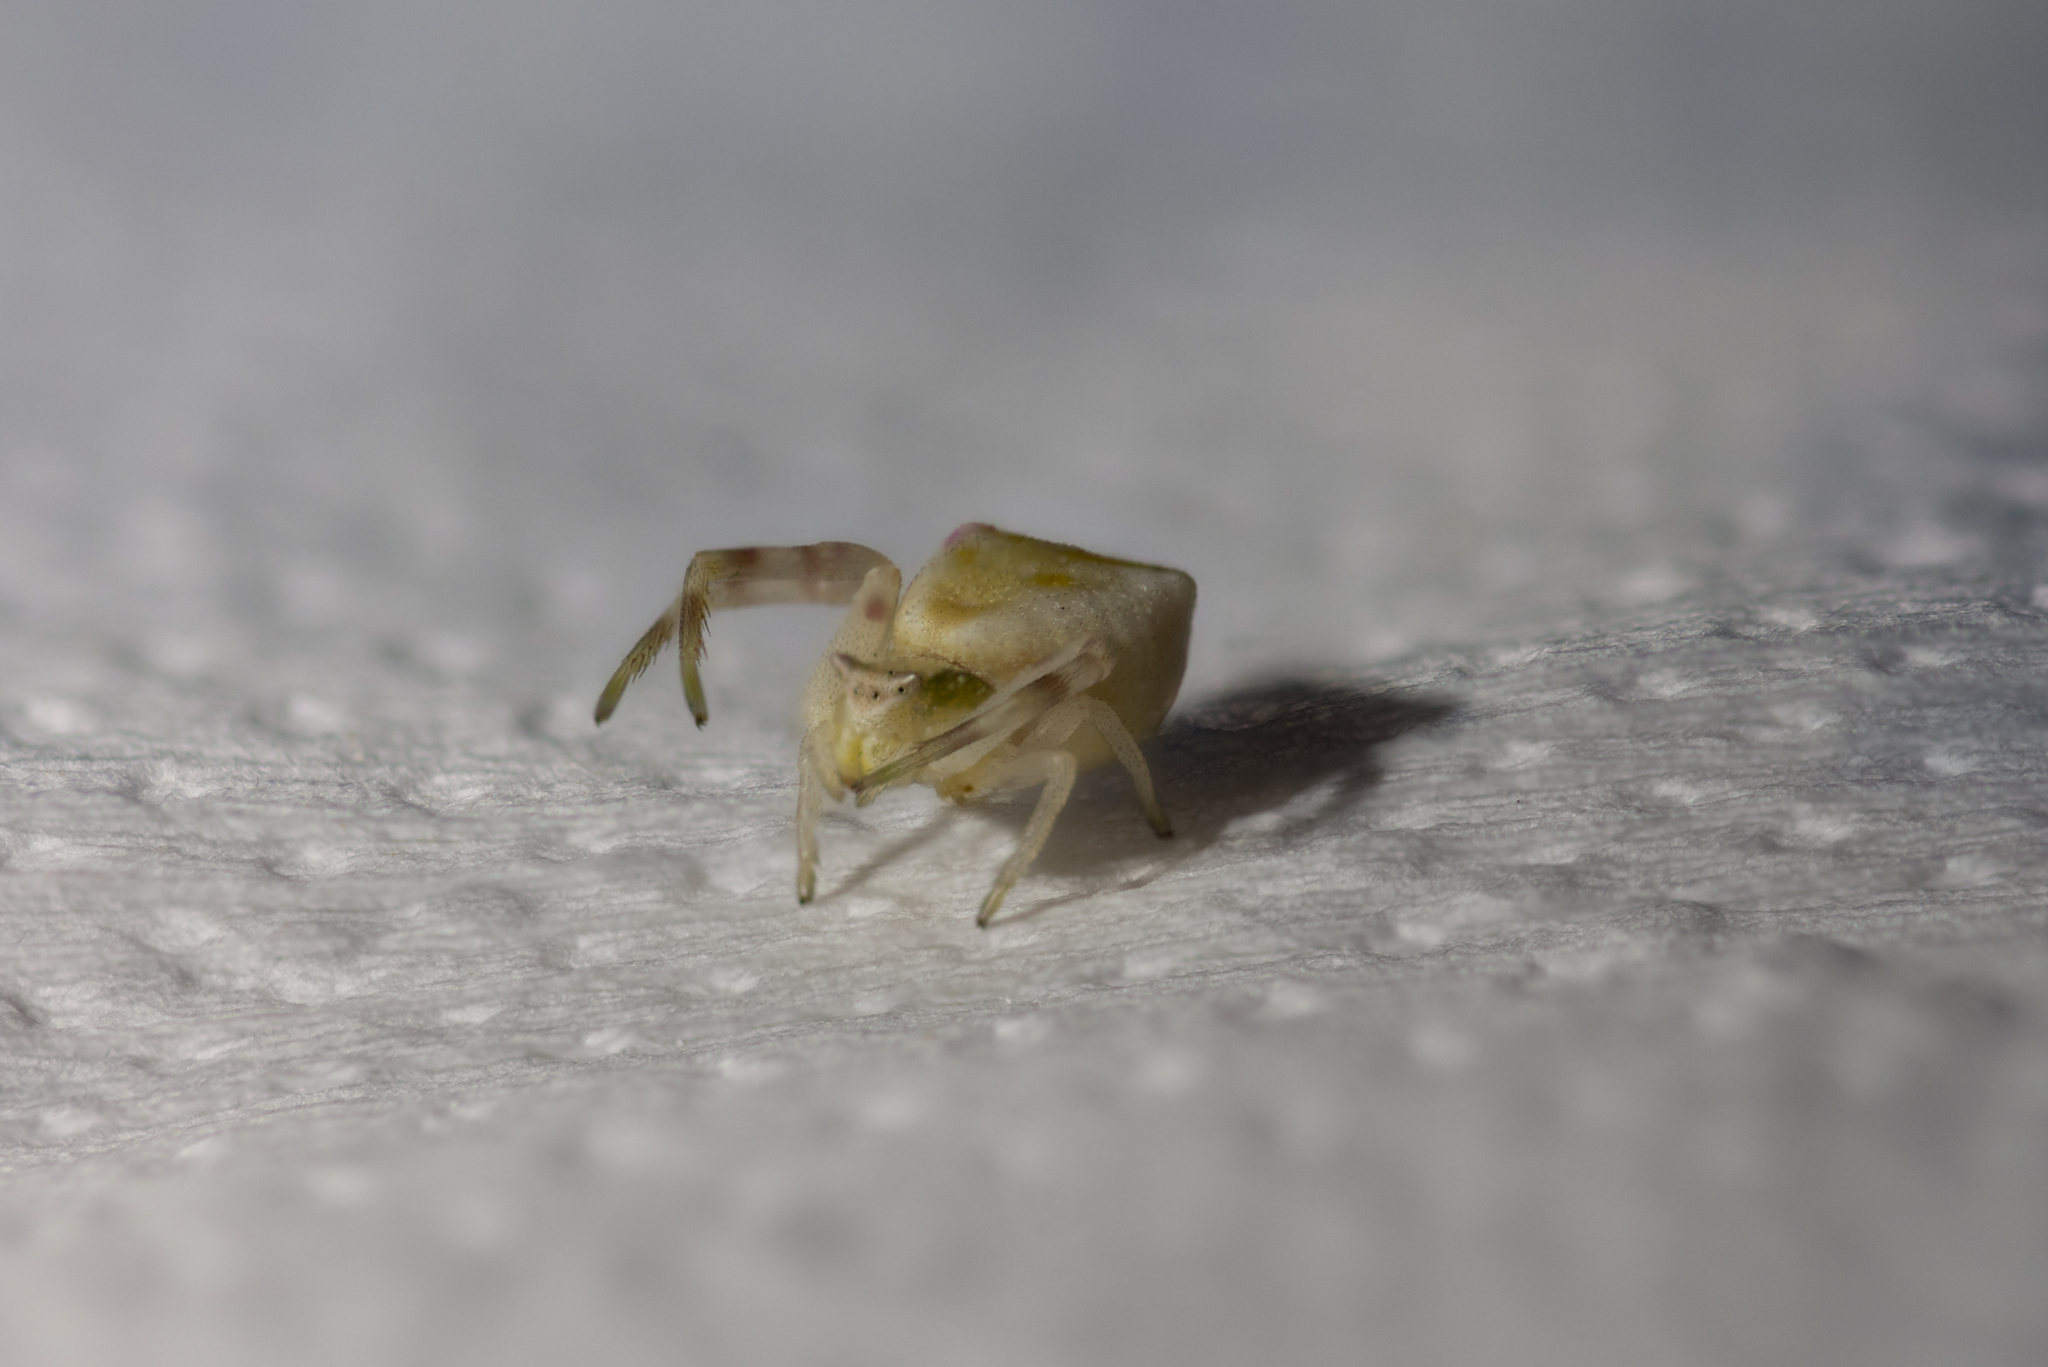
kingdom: Animalia
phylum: Arthropoda
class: Arachnida
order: Araneae
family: Thomisidae
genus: Thomisus
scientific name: Thomisus onustus
